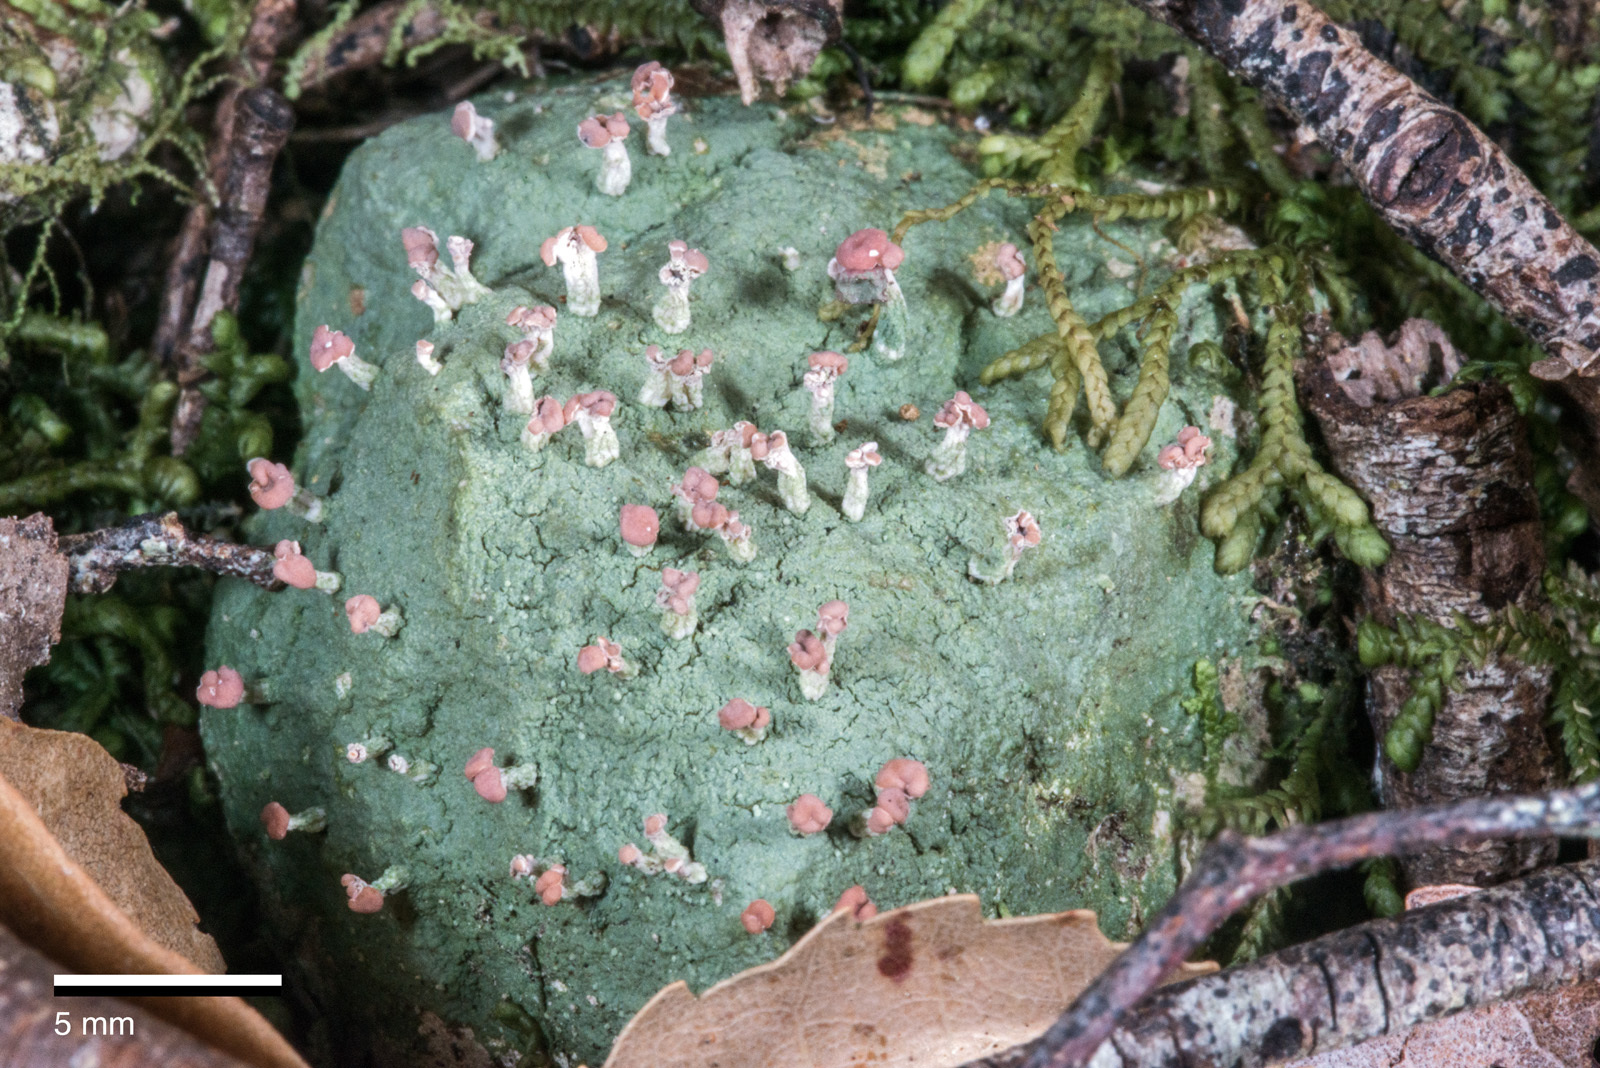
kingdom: Fungi
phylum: Ascomycota
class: Lecanoromycetes
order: Baeomycetales
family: Baeomycetaceae
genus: Baeomyces
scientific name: Baeomyces heteromorphus
